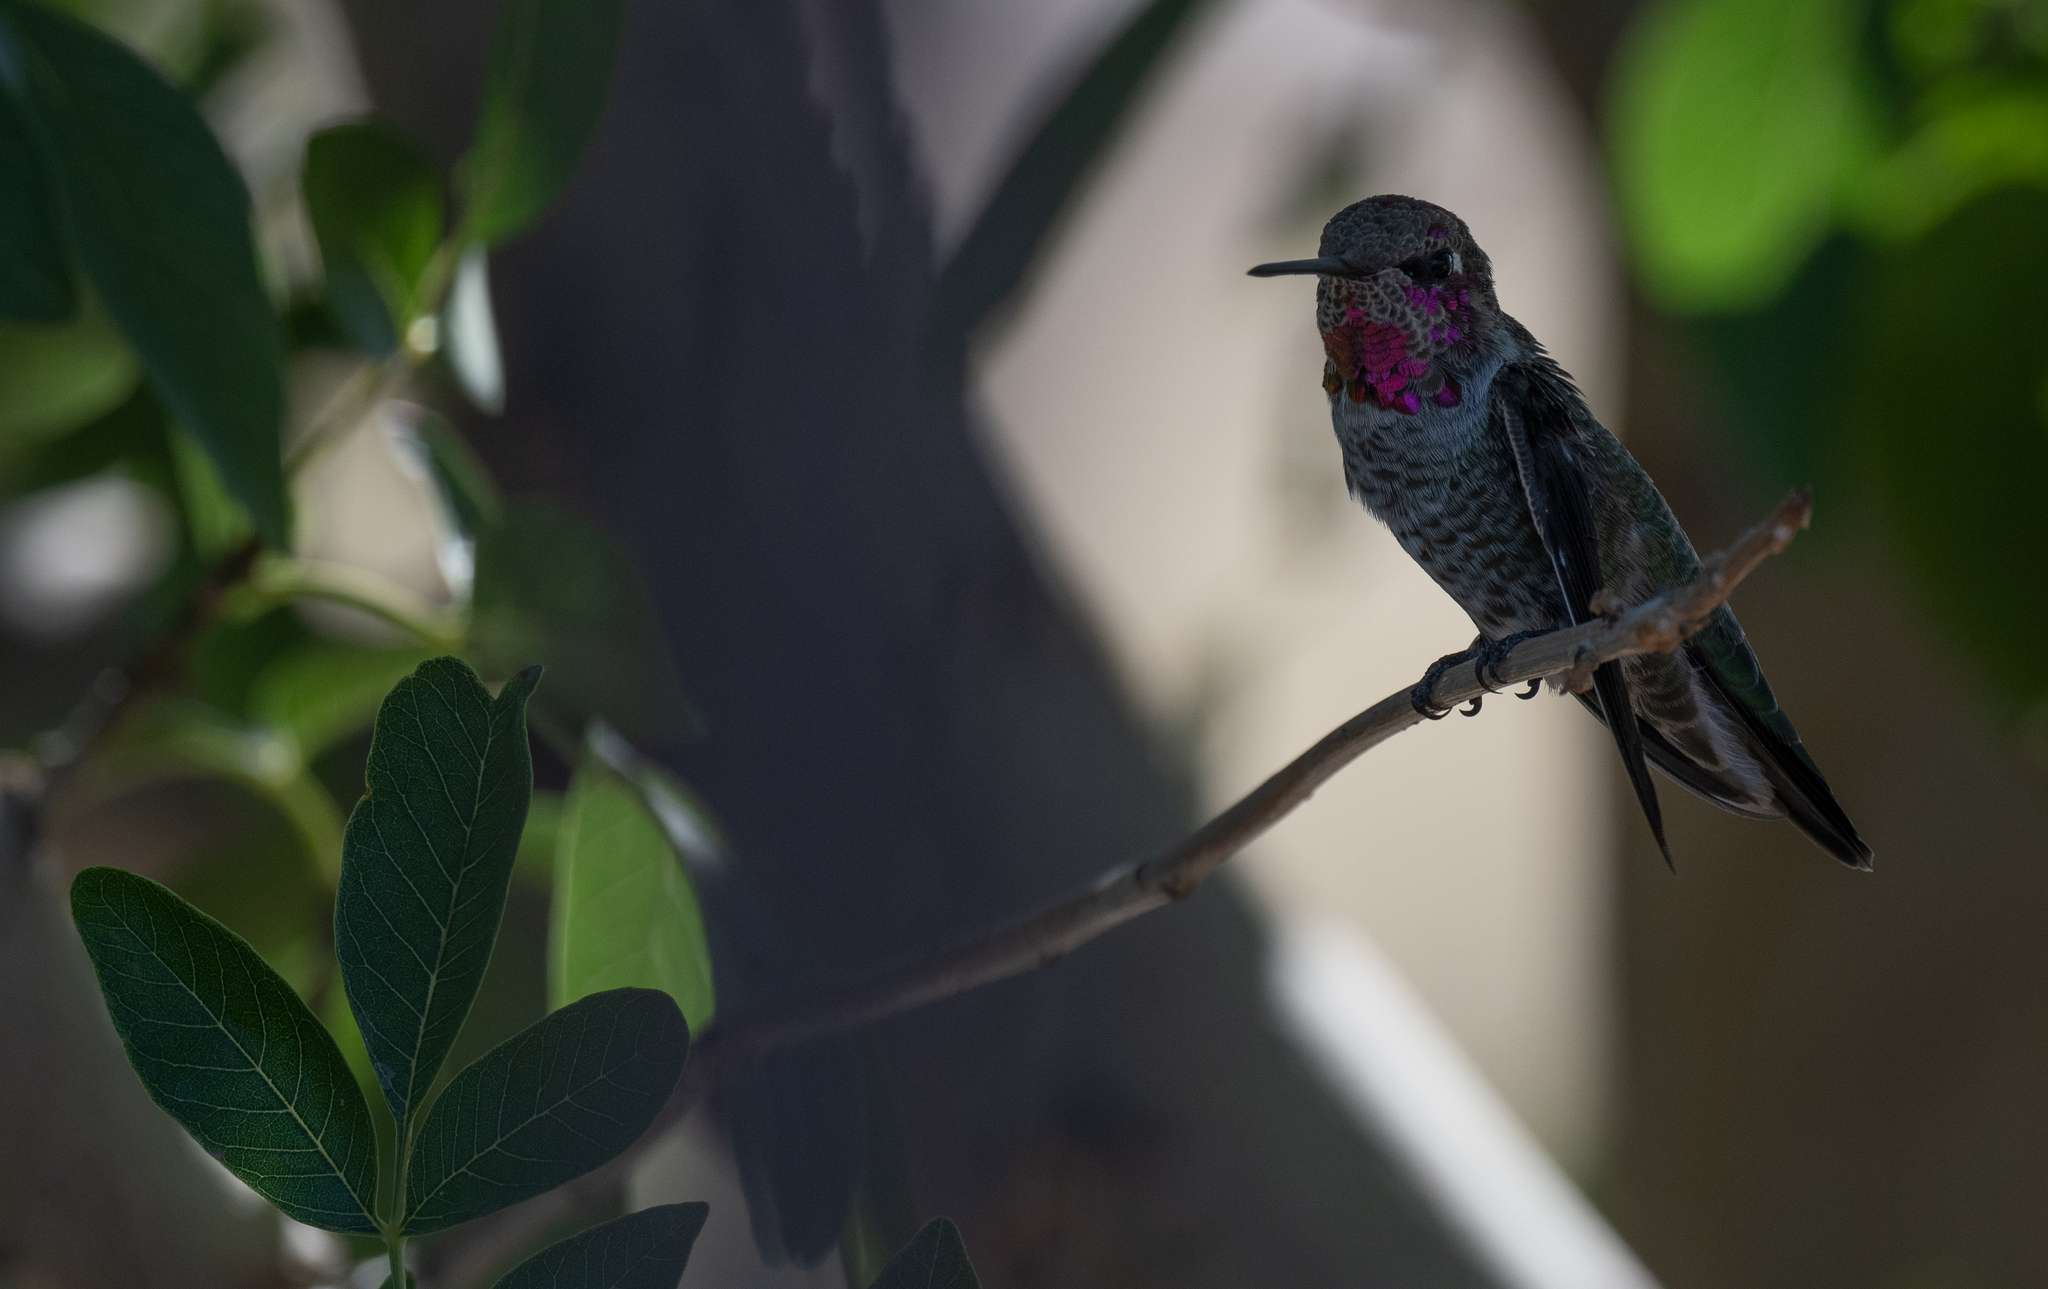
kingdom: Animalia
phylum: Chordata
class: Aves
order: Apodiformes
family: Trochilidae
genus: Calypte
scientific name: Calypte anna
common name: Anna's hummingbird
